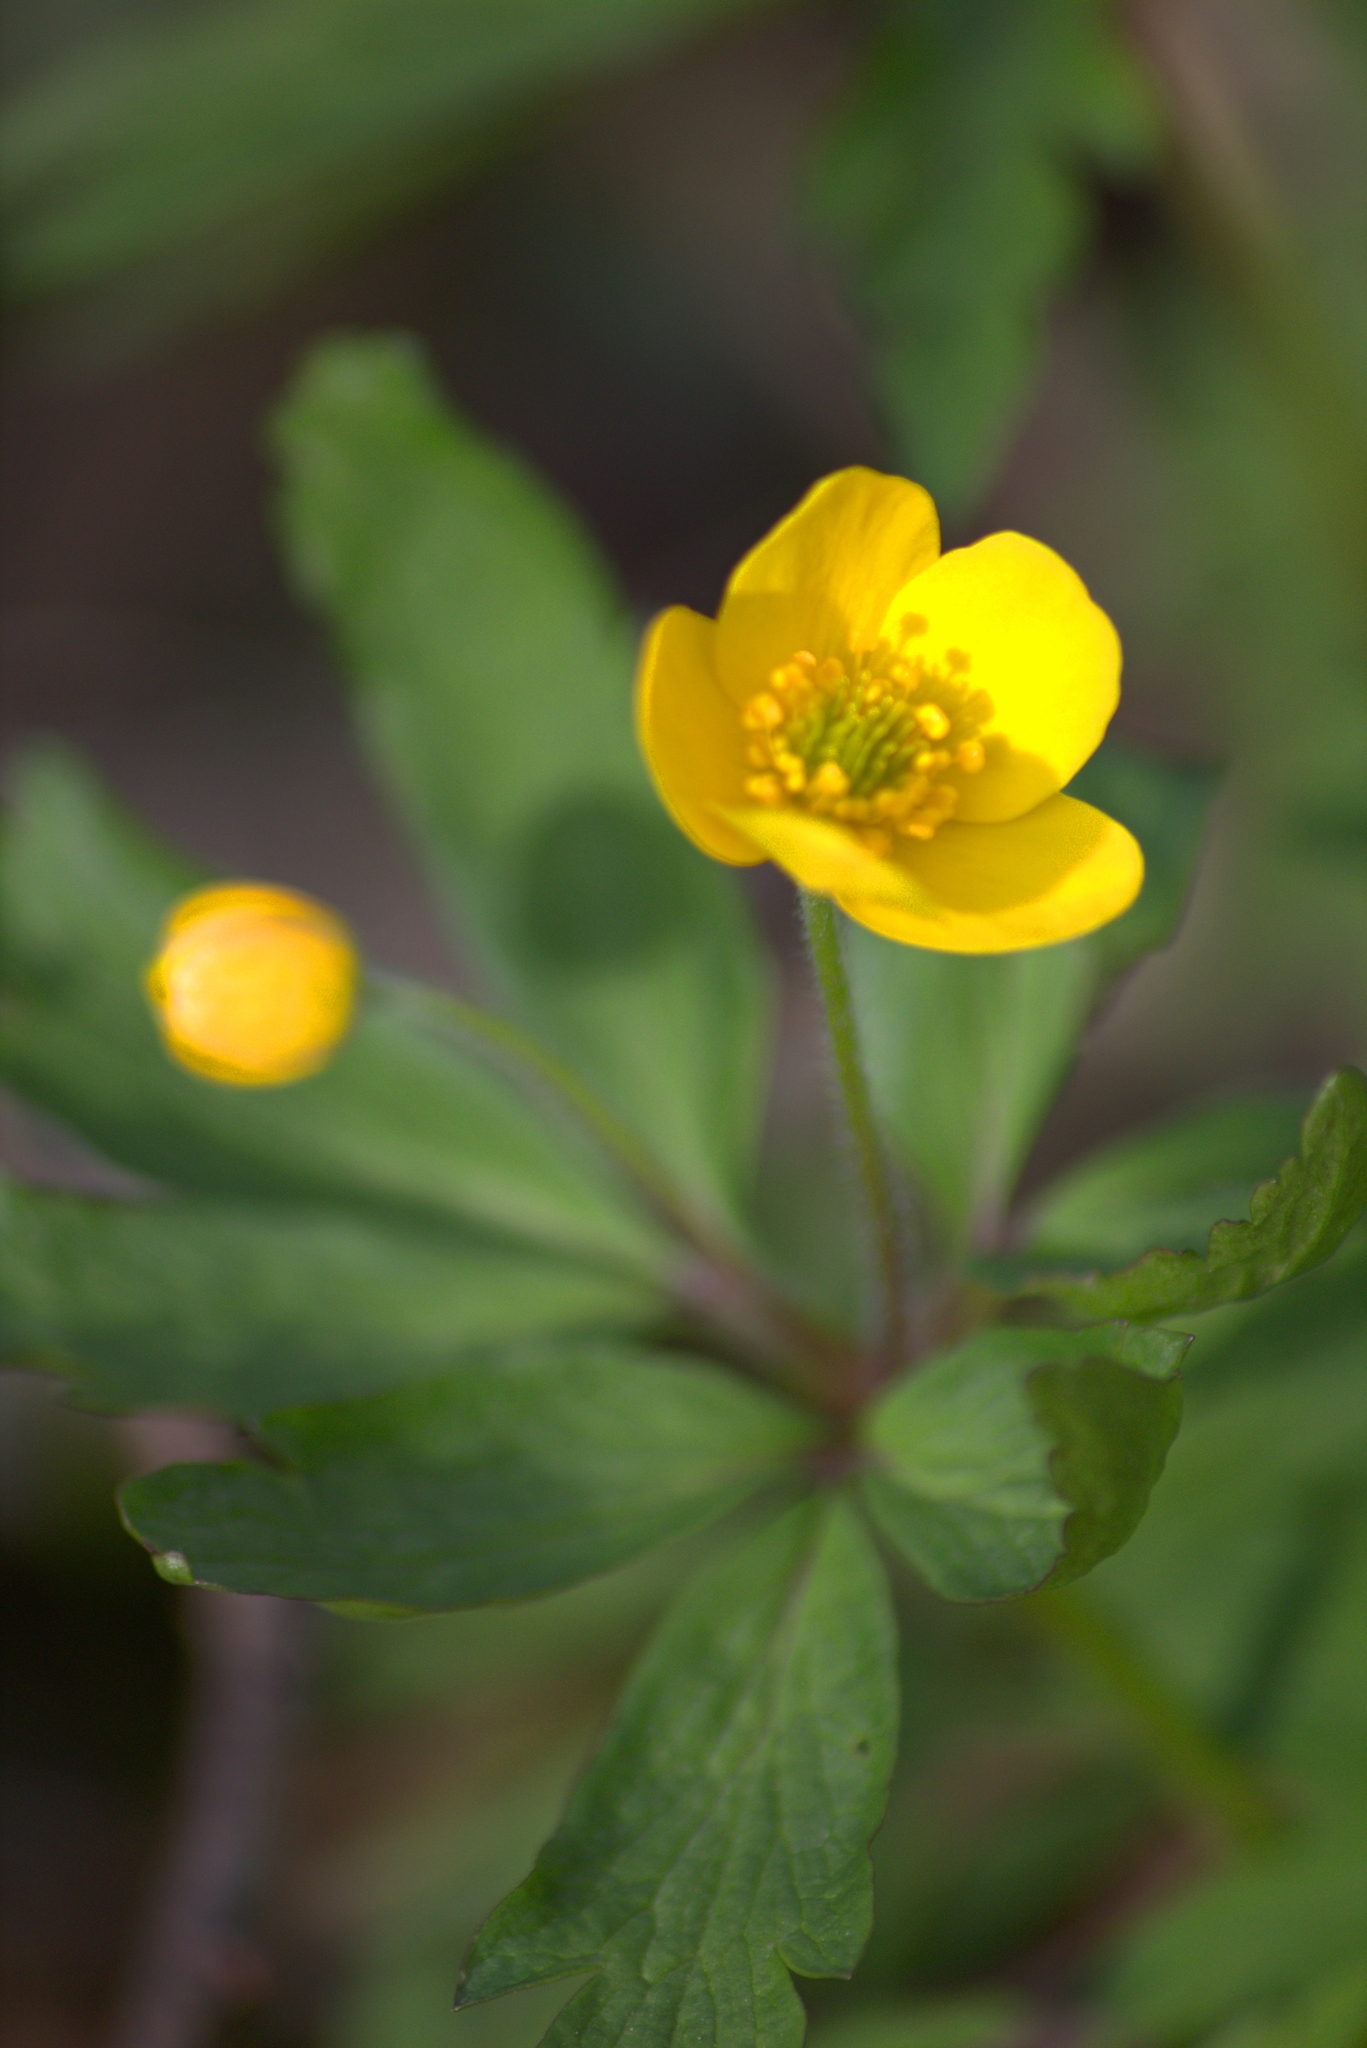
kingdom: Plantae
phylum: Tracheophyta
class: Magnoliopsida
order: Ranunculales
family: Ranunculaceae
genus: Anemone
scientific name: Anemone ranunculoides
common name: Yellow anemone
